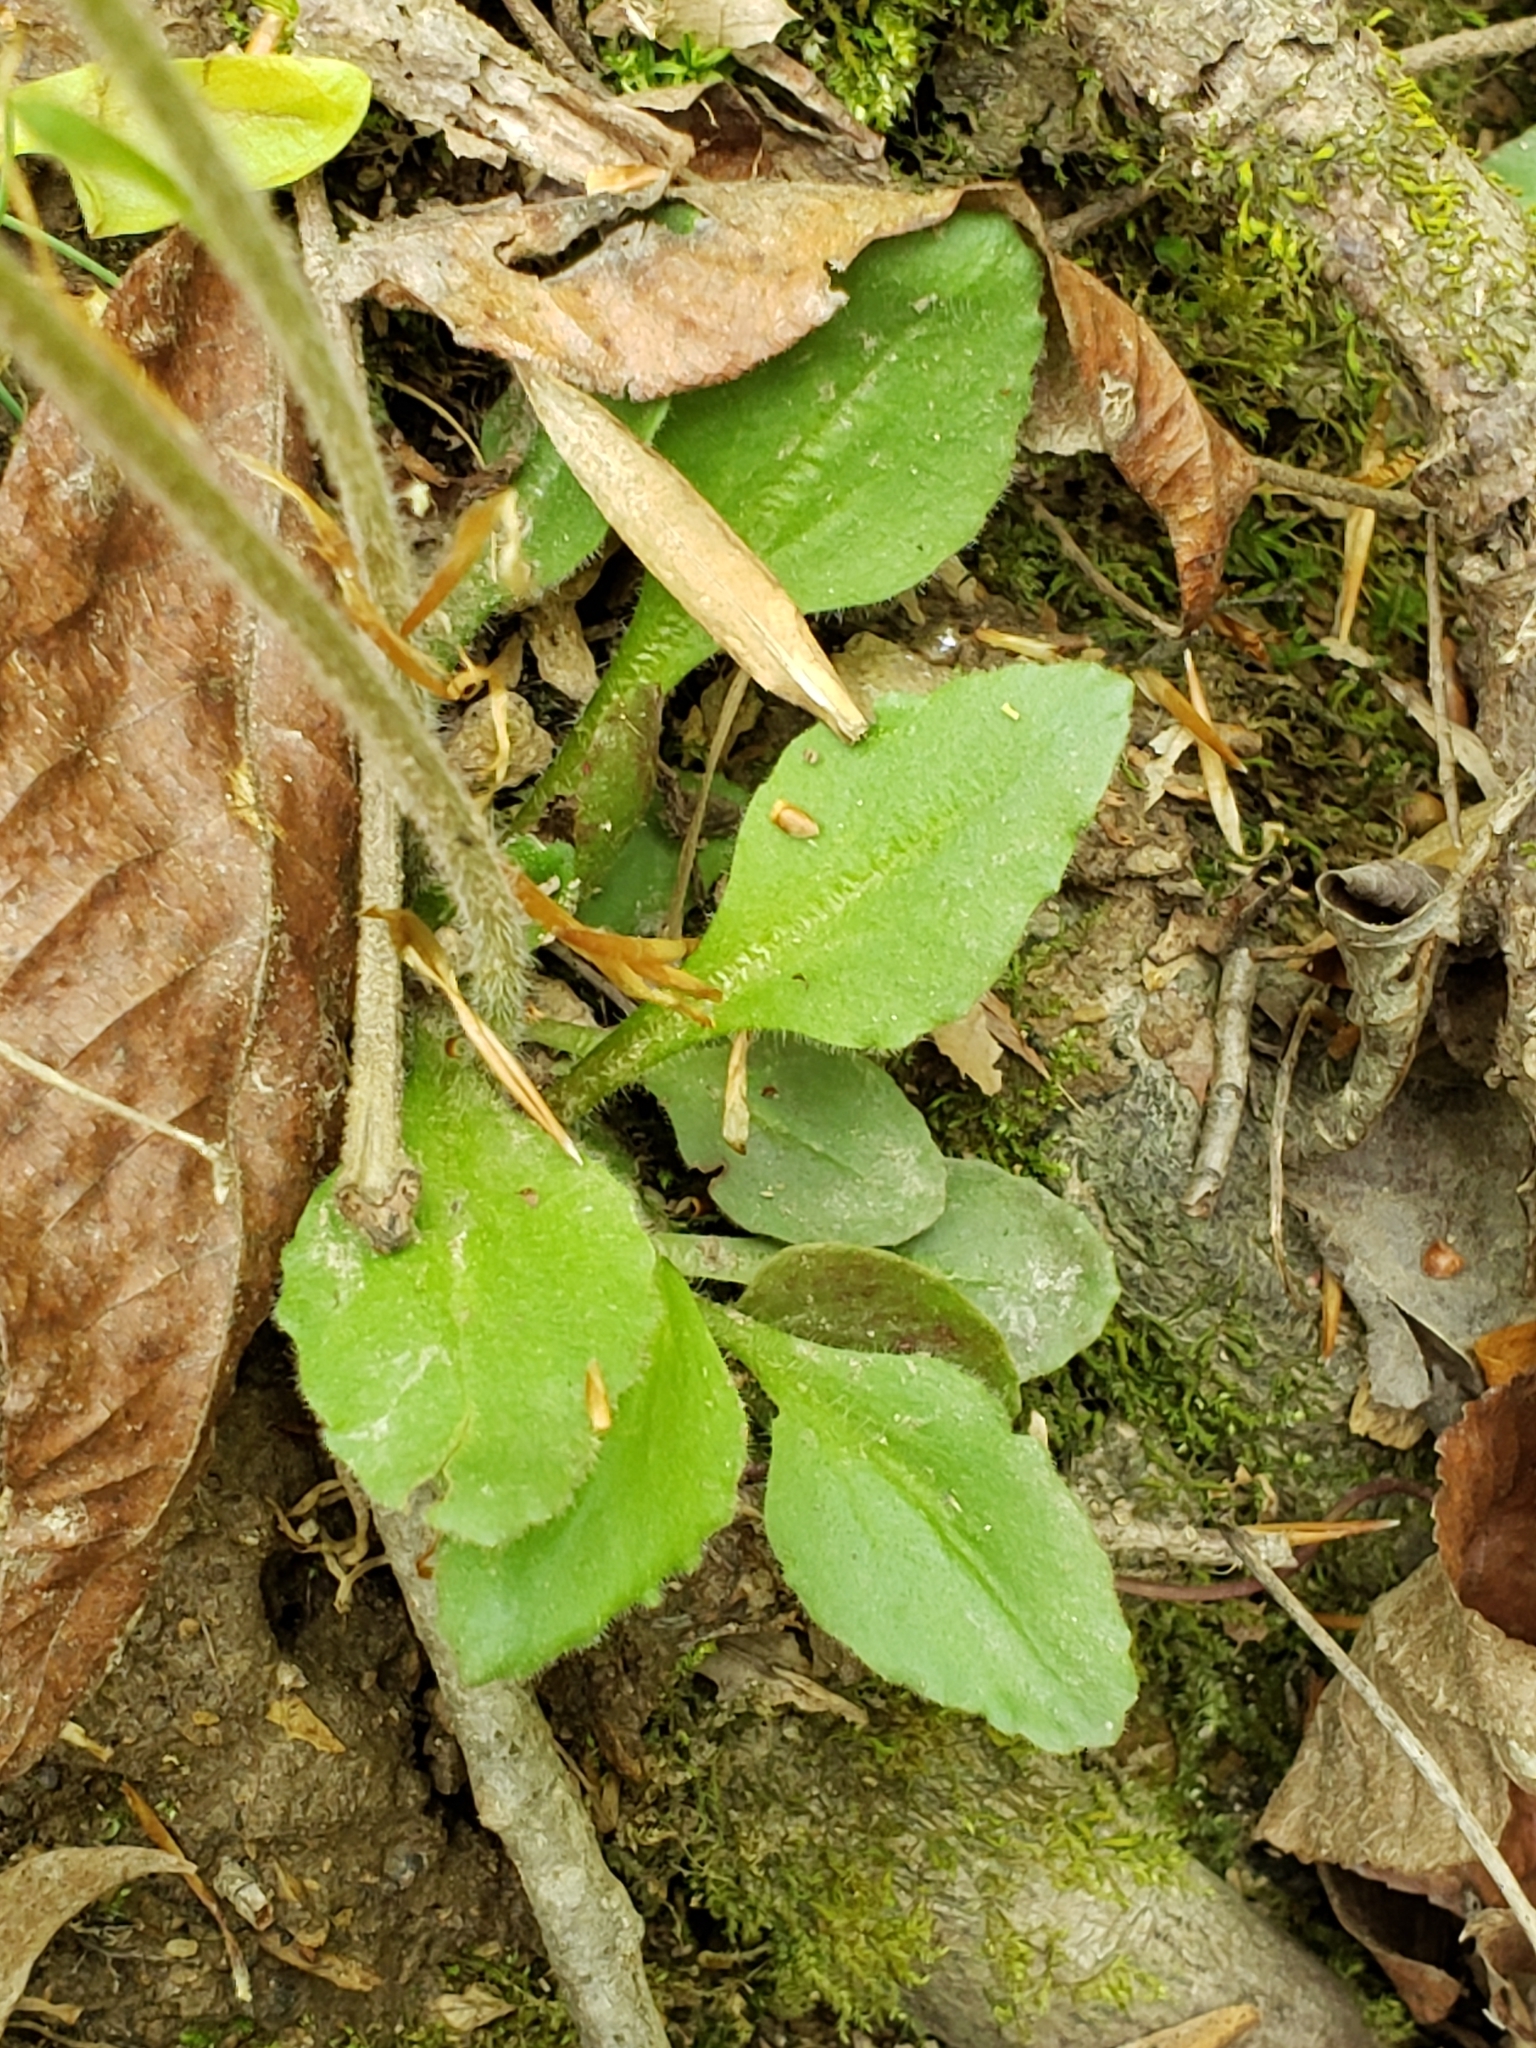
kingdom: Plantae
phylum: Tracheophyta
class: Magnoliopsida
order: Saxifragales
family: Saxifragaceae
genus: Micranthes
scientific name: Micranthes virginiensis
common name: Early saxifrage
